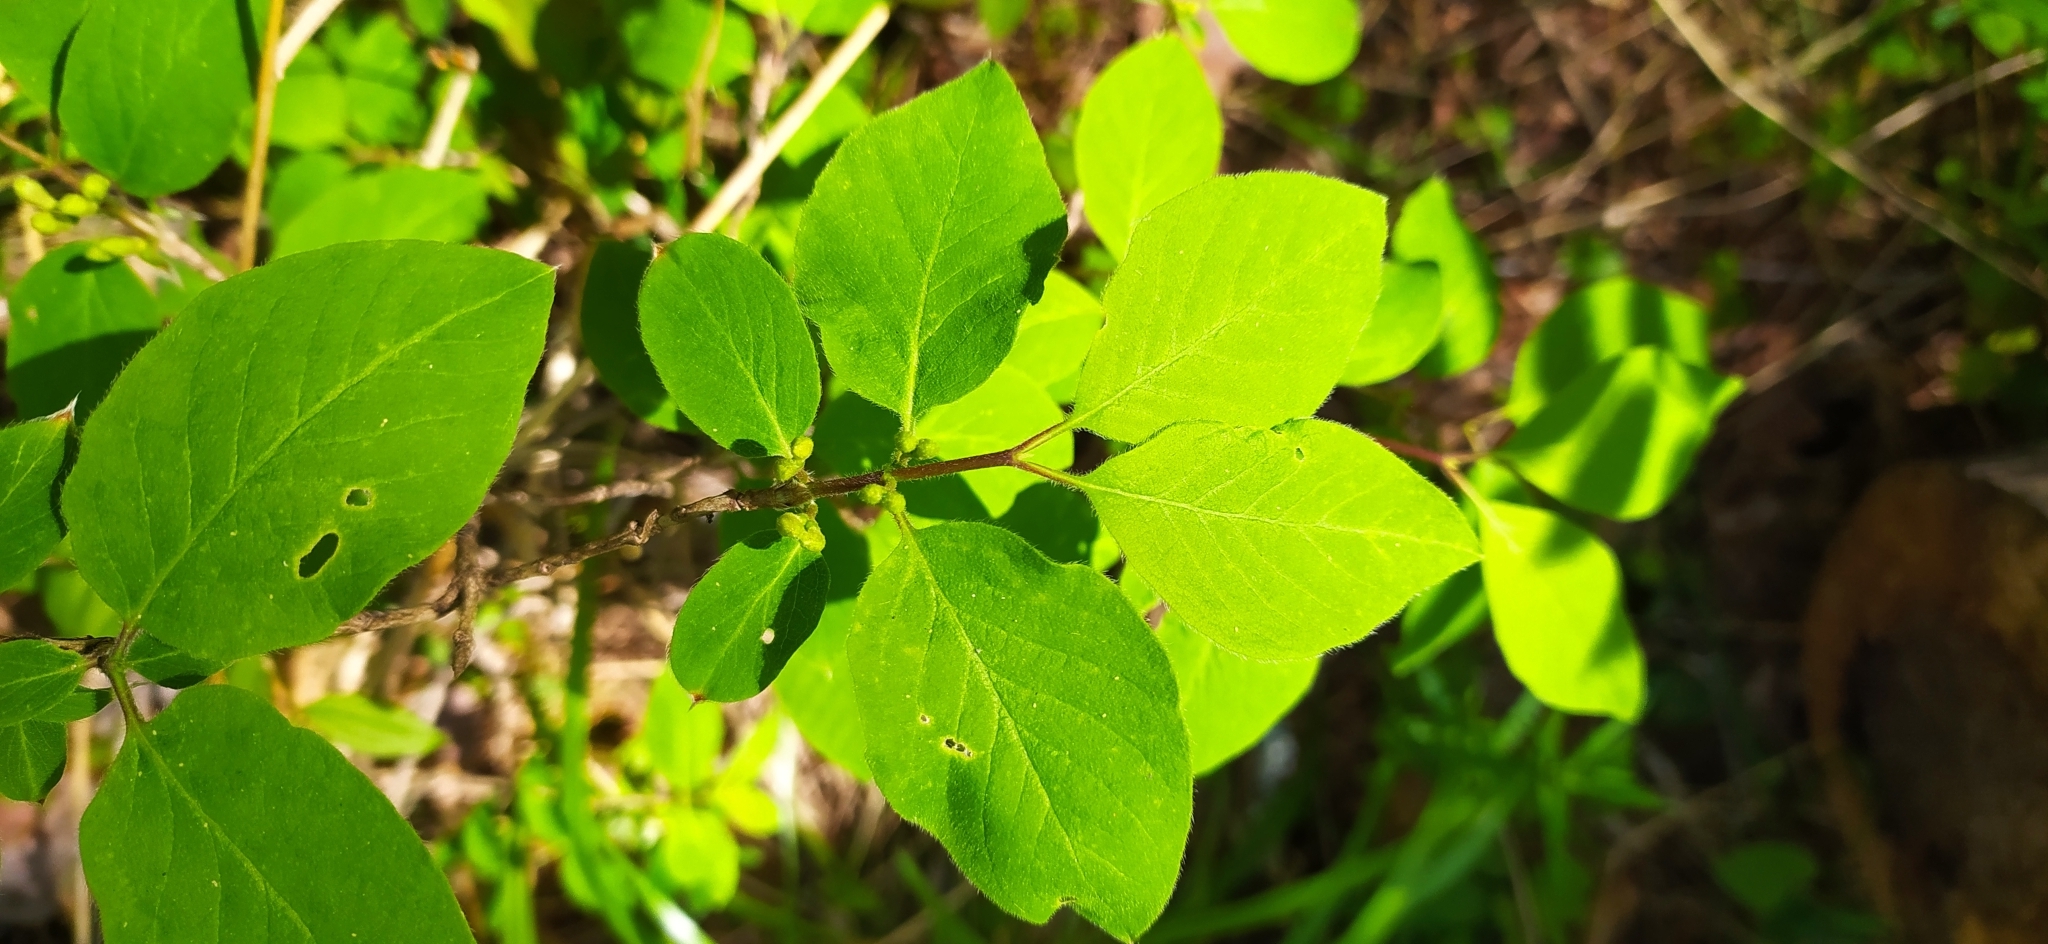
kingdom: Plantae
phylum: Tracheophyta
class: Magnoliopsida
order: Dipsacales
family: Caprifoliaceae
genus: Lonicera
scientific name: Lonicera xylosteum
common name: Fly honeysuckle
